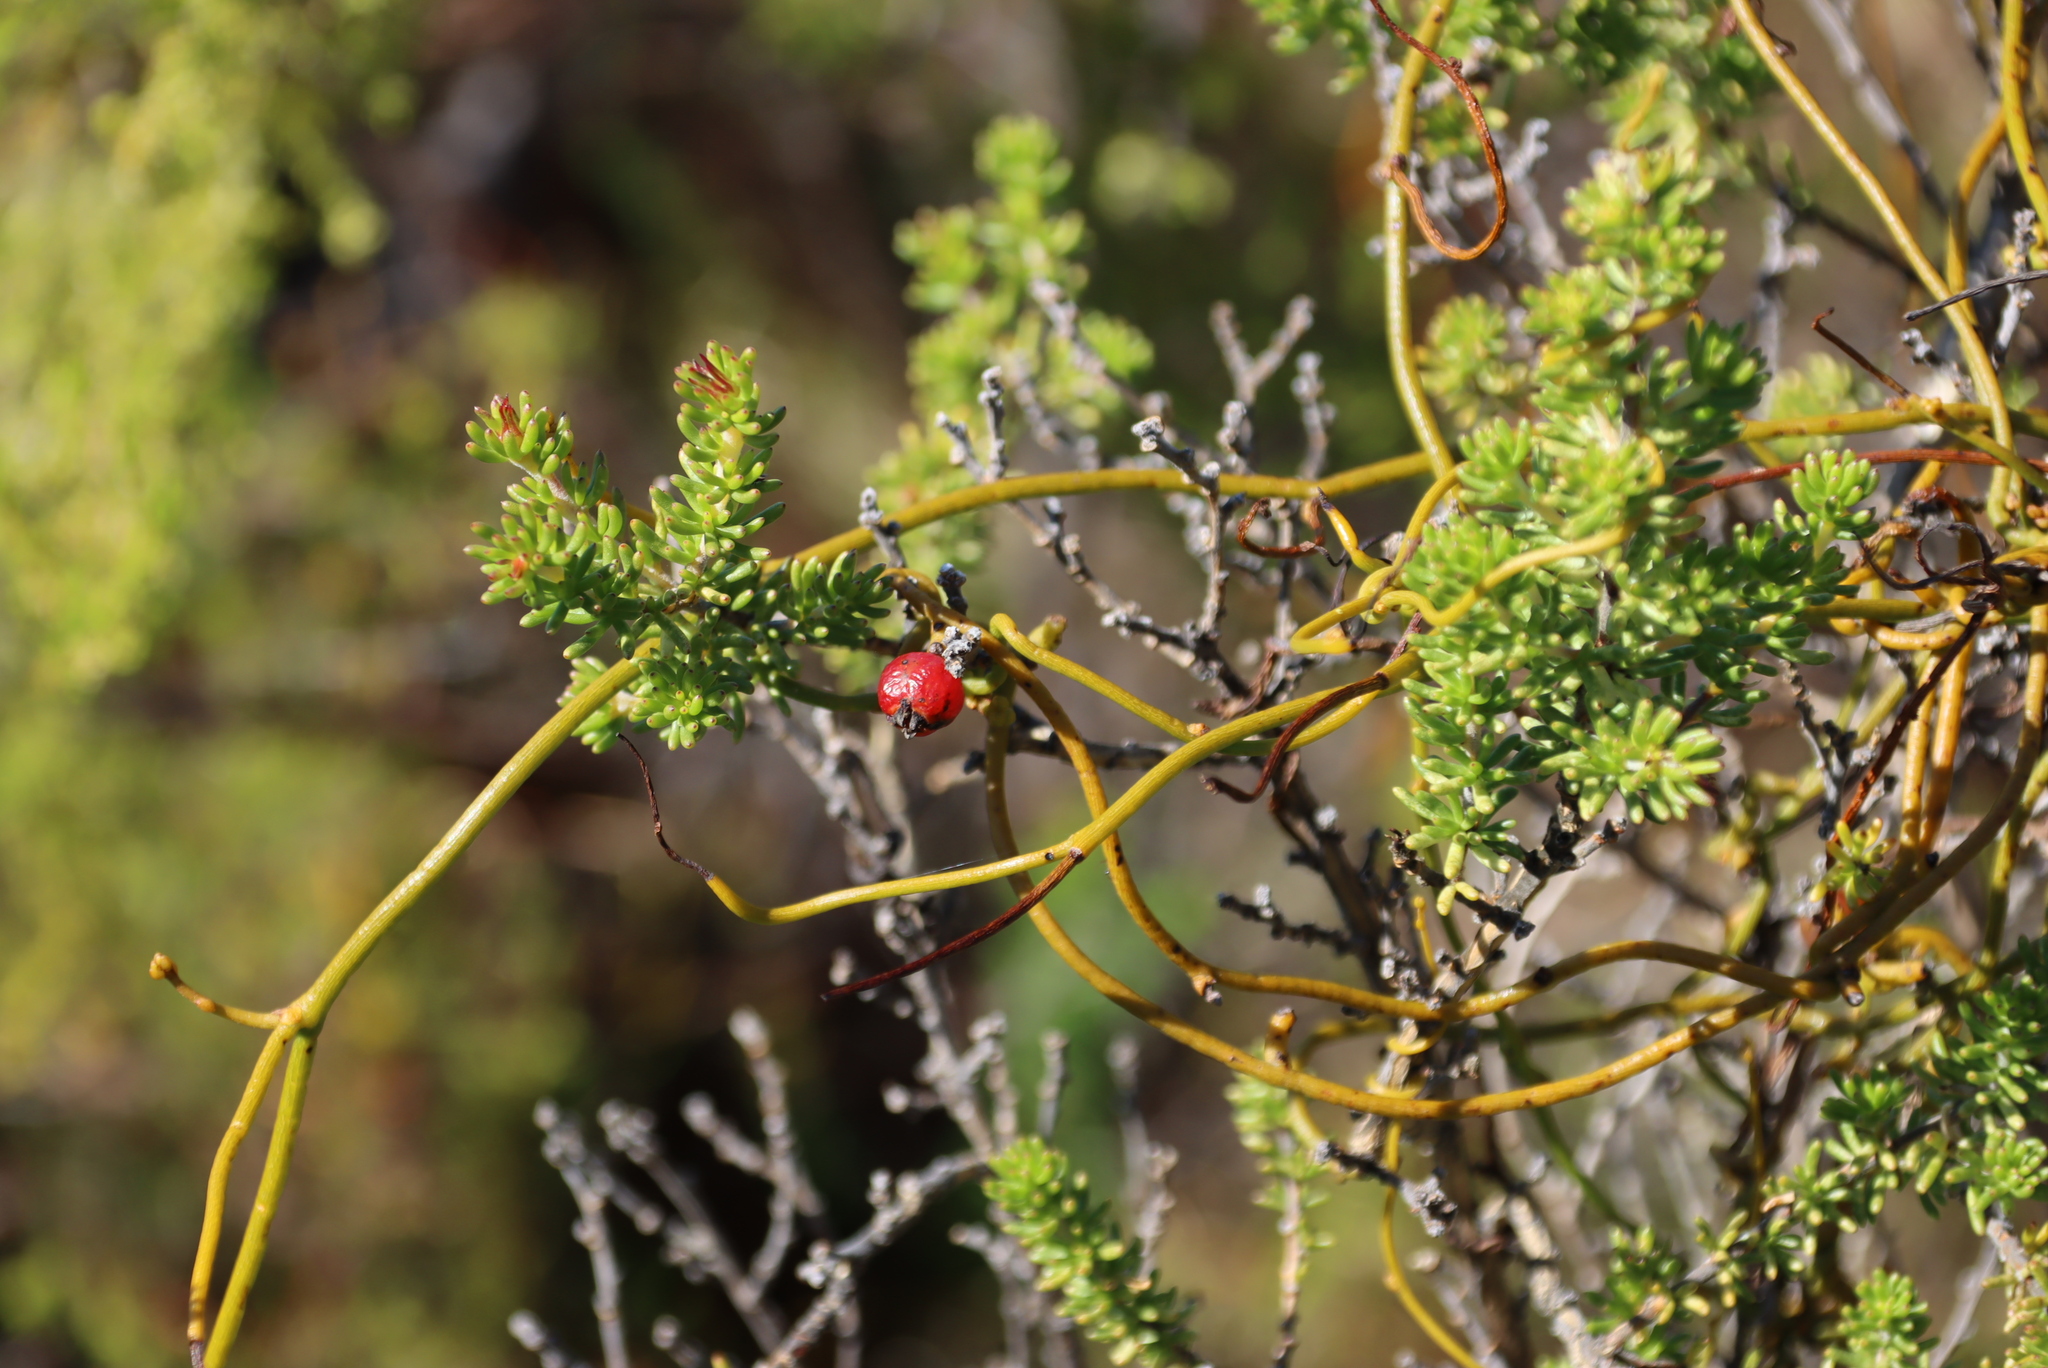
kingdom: Plantae
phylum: Tracheophyta
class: Magnoliopsida
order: Laurales
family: Lauraceae
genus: Cassytha
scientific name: Cassytha ciliolata
